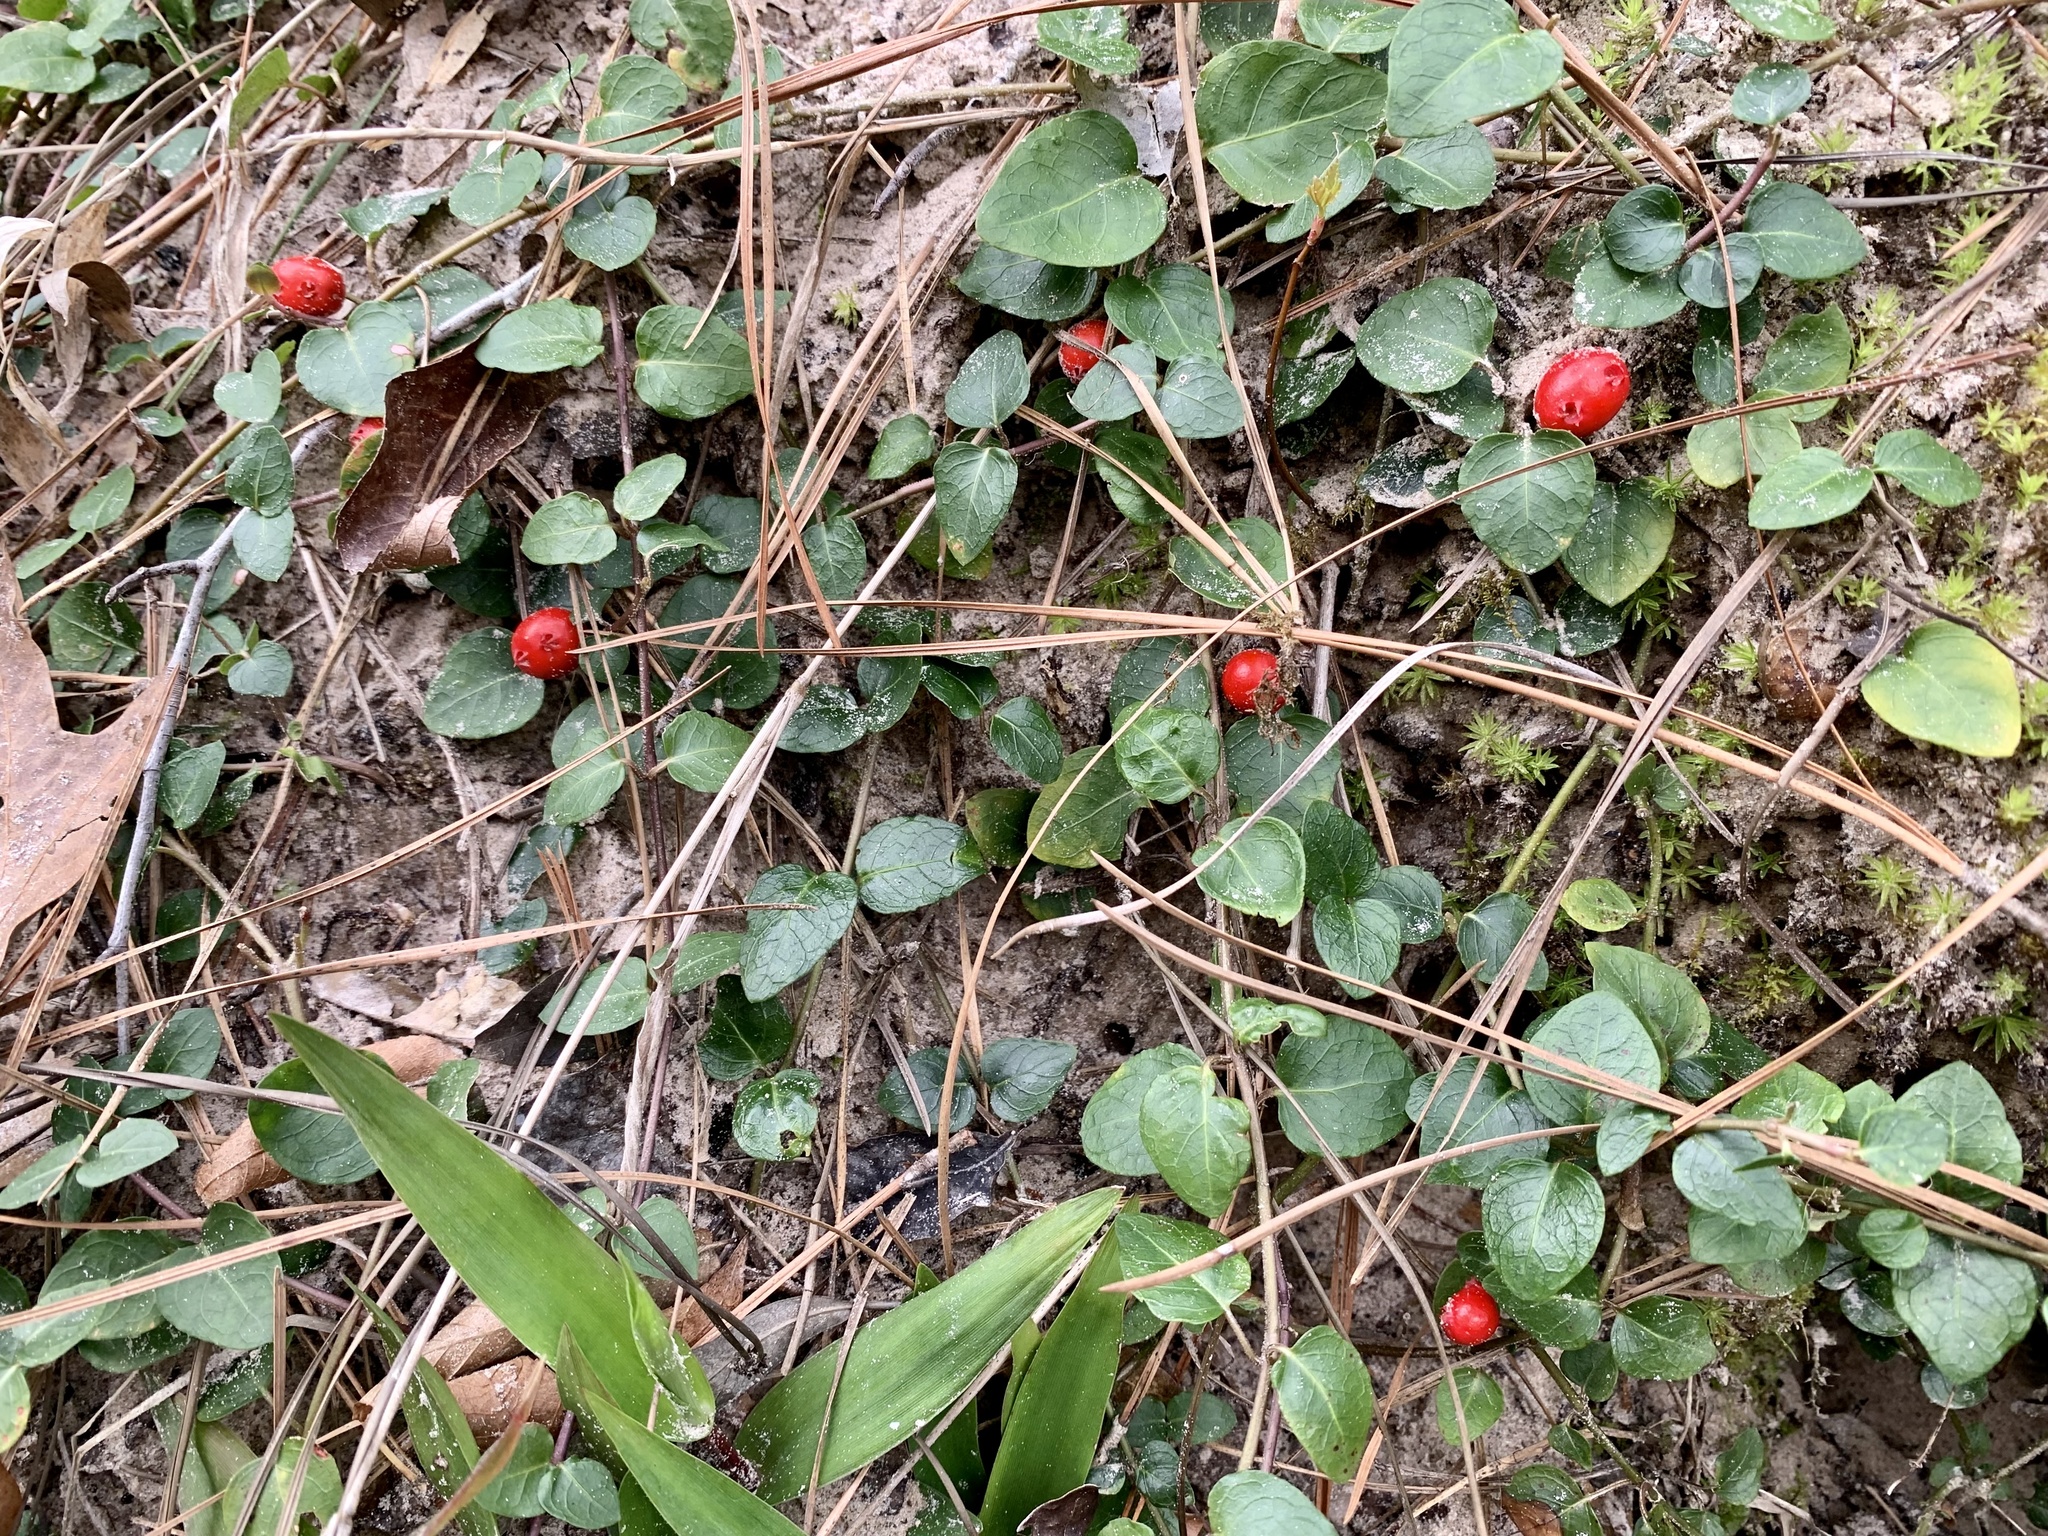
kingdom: Plantae
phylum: Tracheophyta
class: Magnoliopsida
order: Gentianales
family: Rubiaceae
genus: Mitchella
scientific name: Mitchella repens
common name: Partridge-berry
